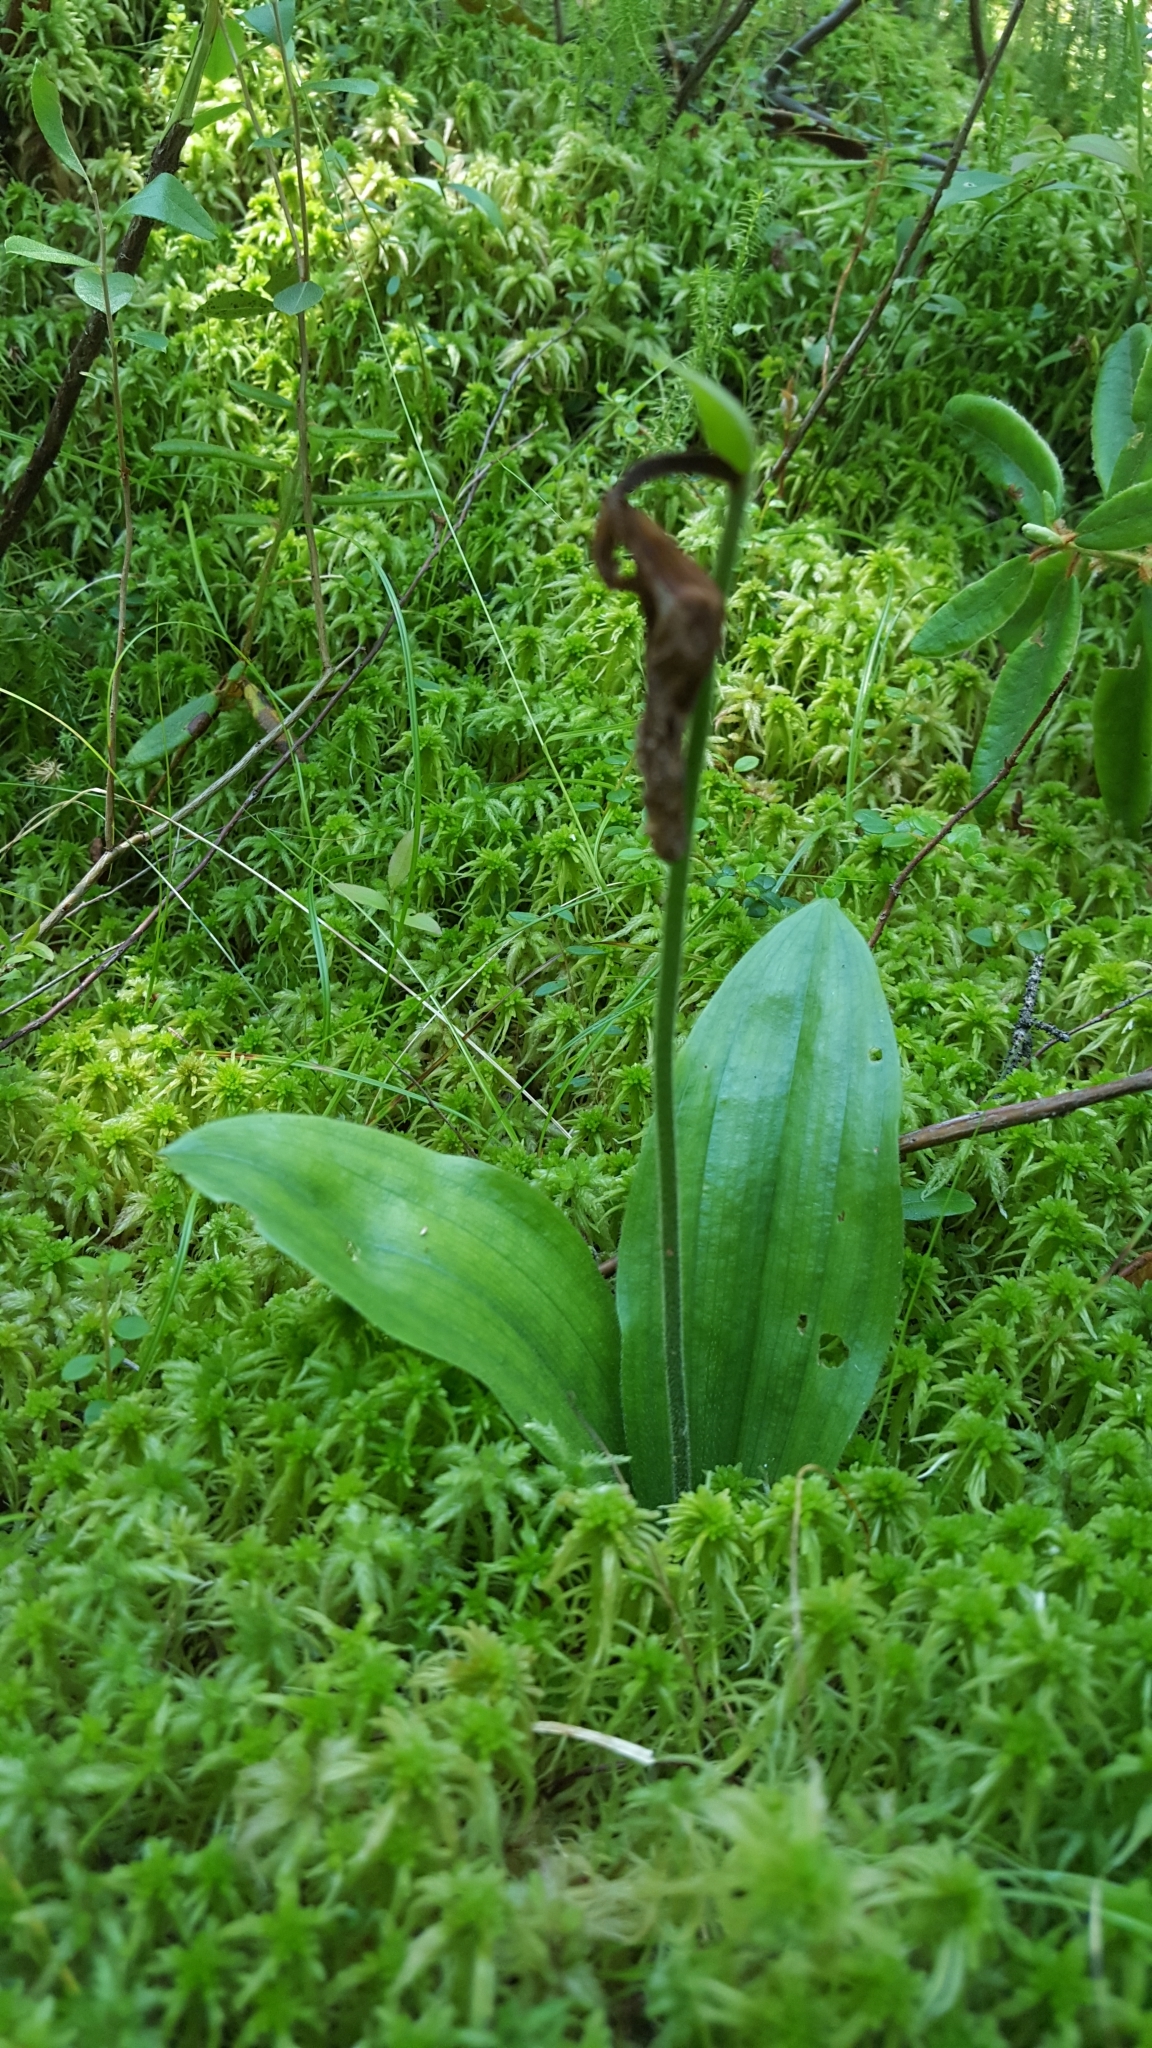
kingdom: Plantae
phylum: Tracheophyta
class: Liliopsida
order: Asparagales
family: Orchidaceae
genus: Cypripedium
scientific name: Cypripedium acaule
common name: Pink lady's-slipper
